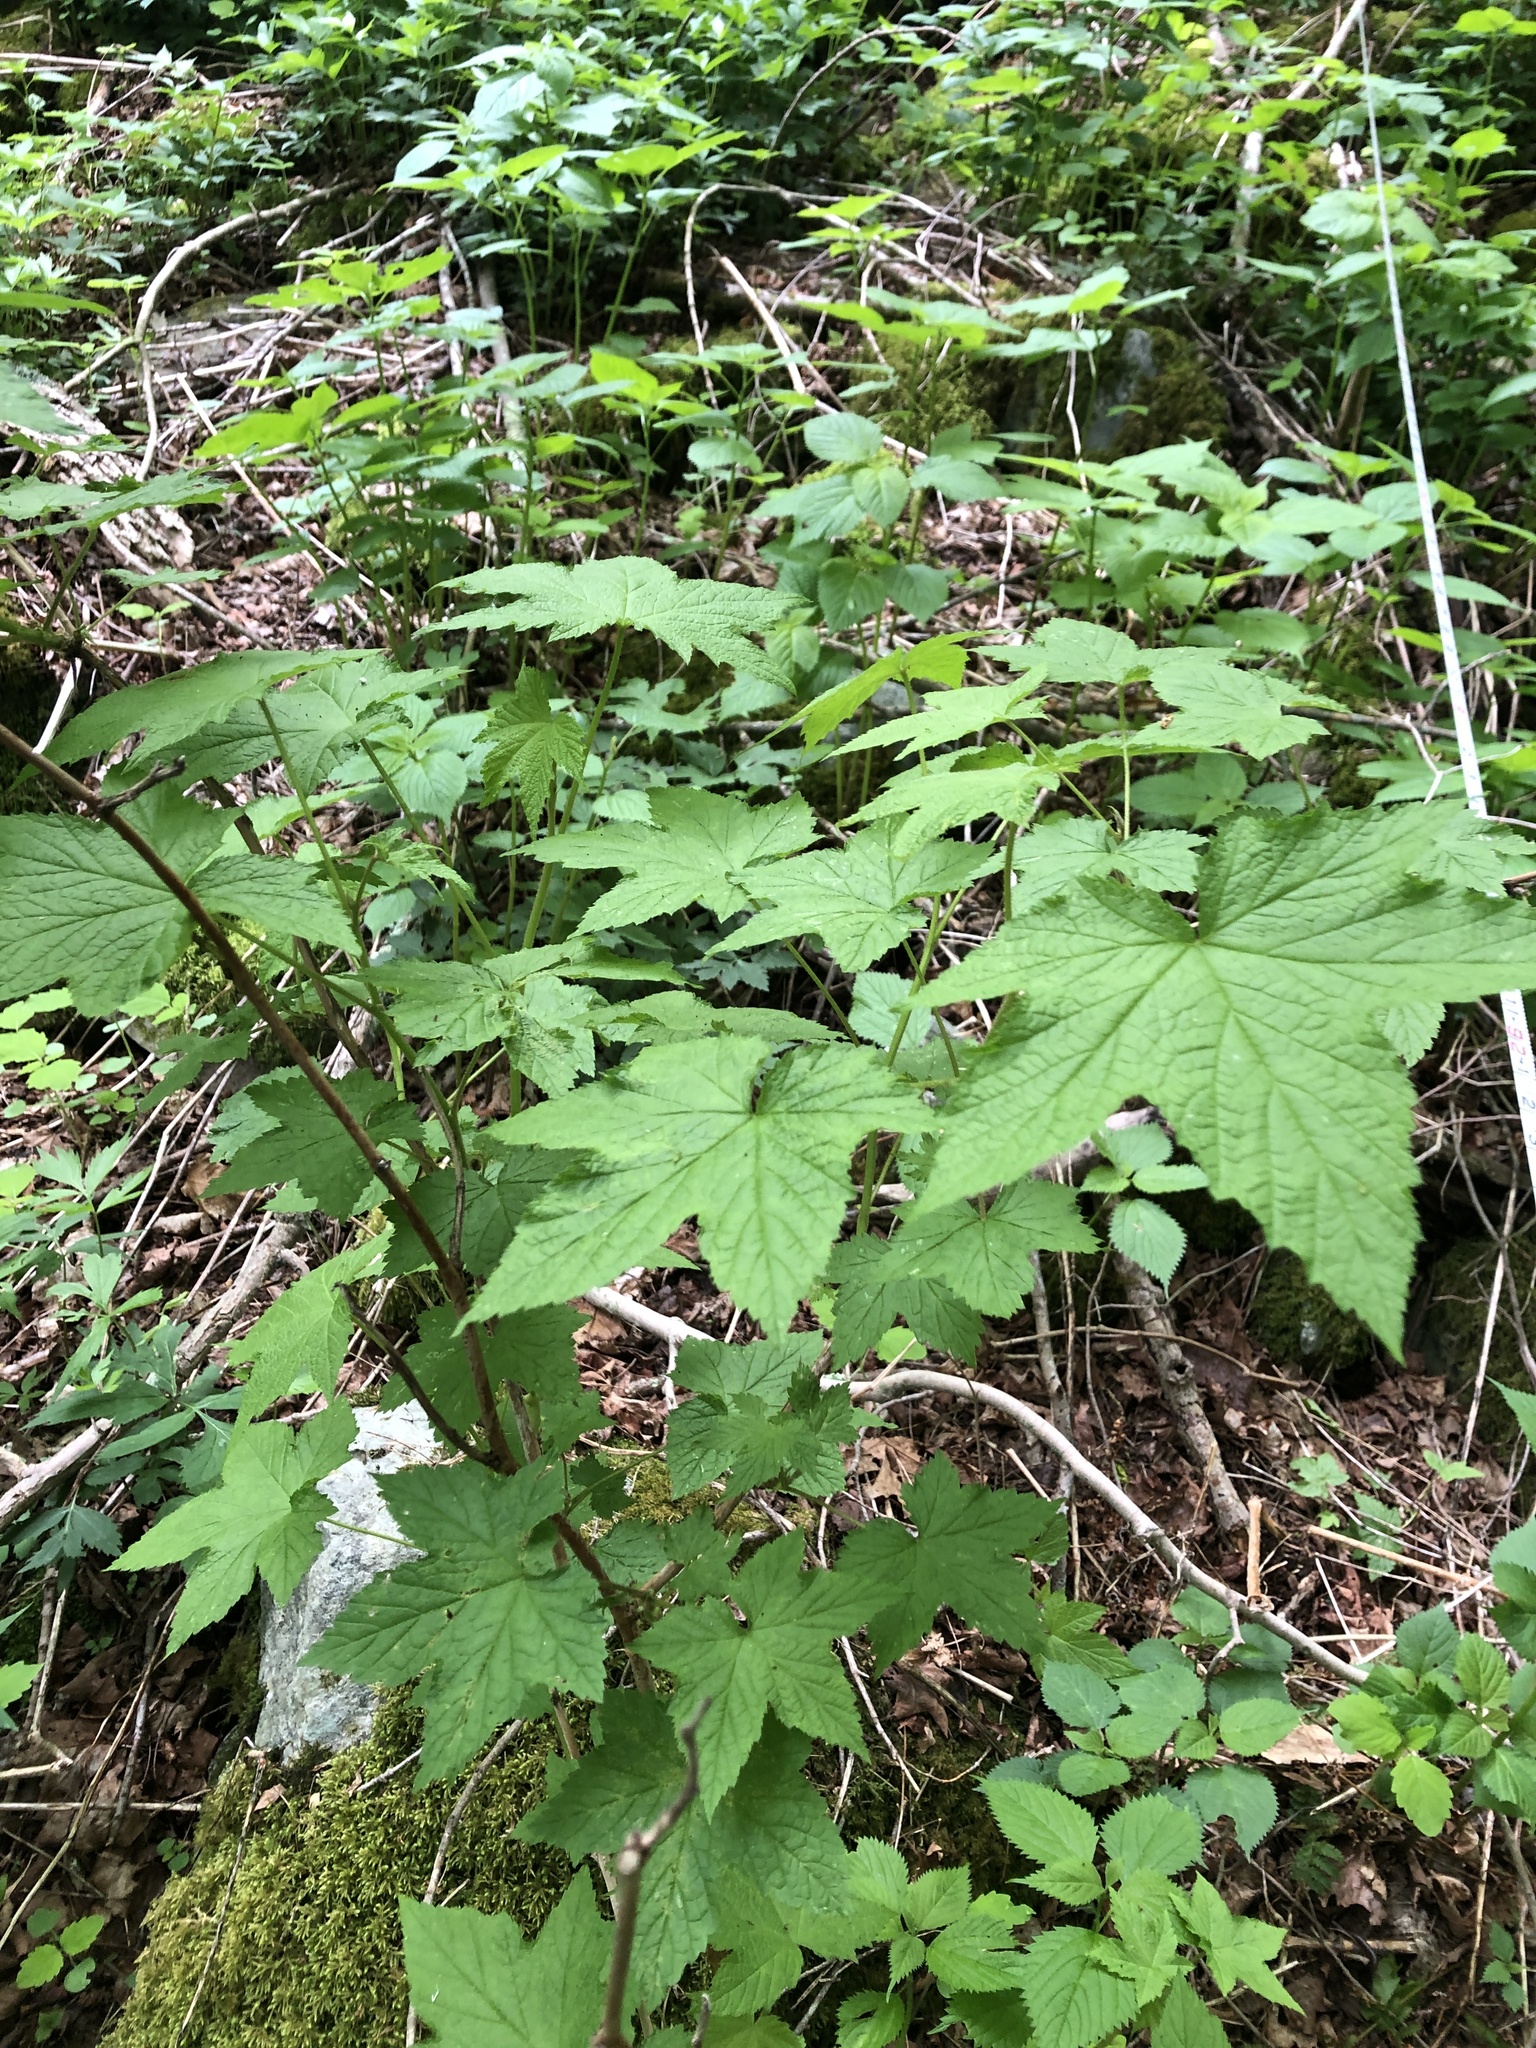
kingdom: Plantae
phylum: Tracheophyta
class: Magnoliopsida
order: Rosales
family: Rosaceae
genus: Rubus
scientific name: Rubus odoratus
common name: Purple-flowered raspberry
